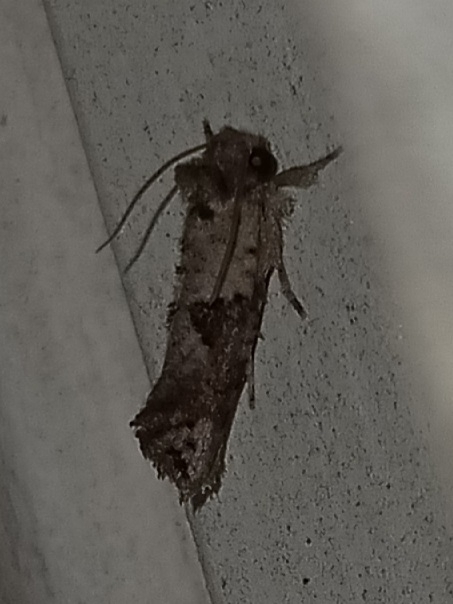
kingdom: Animalia
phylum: Arthropoda
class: Insecta
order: Lepidoptera
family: Tineidae
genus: Acrolophus
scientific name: Acrolophus piger
